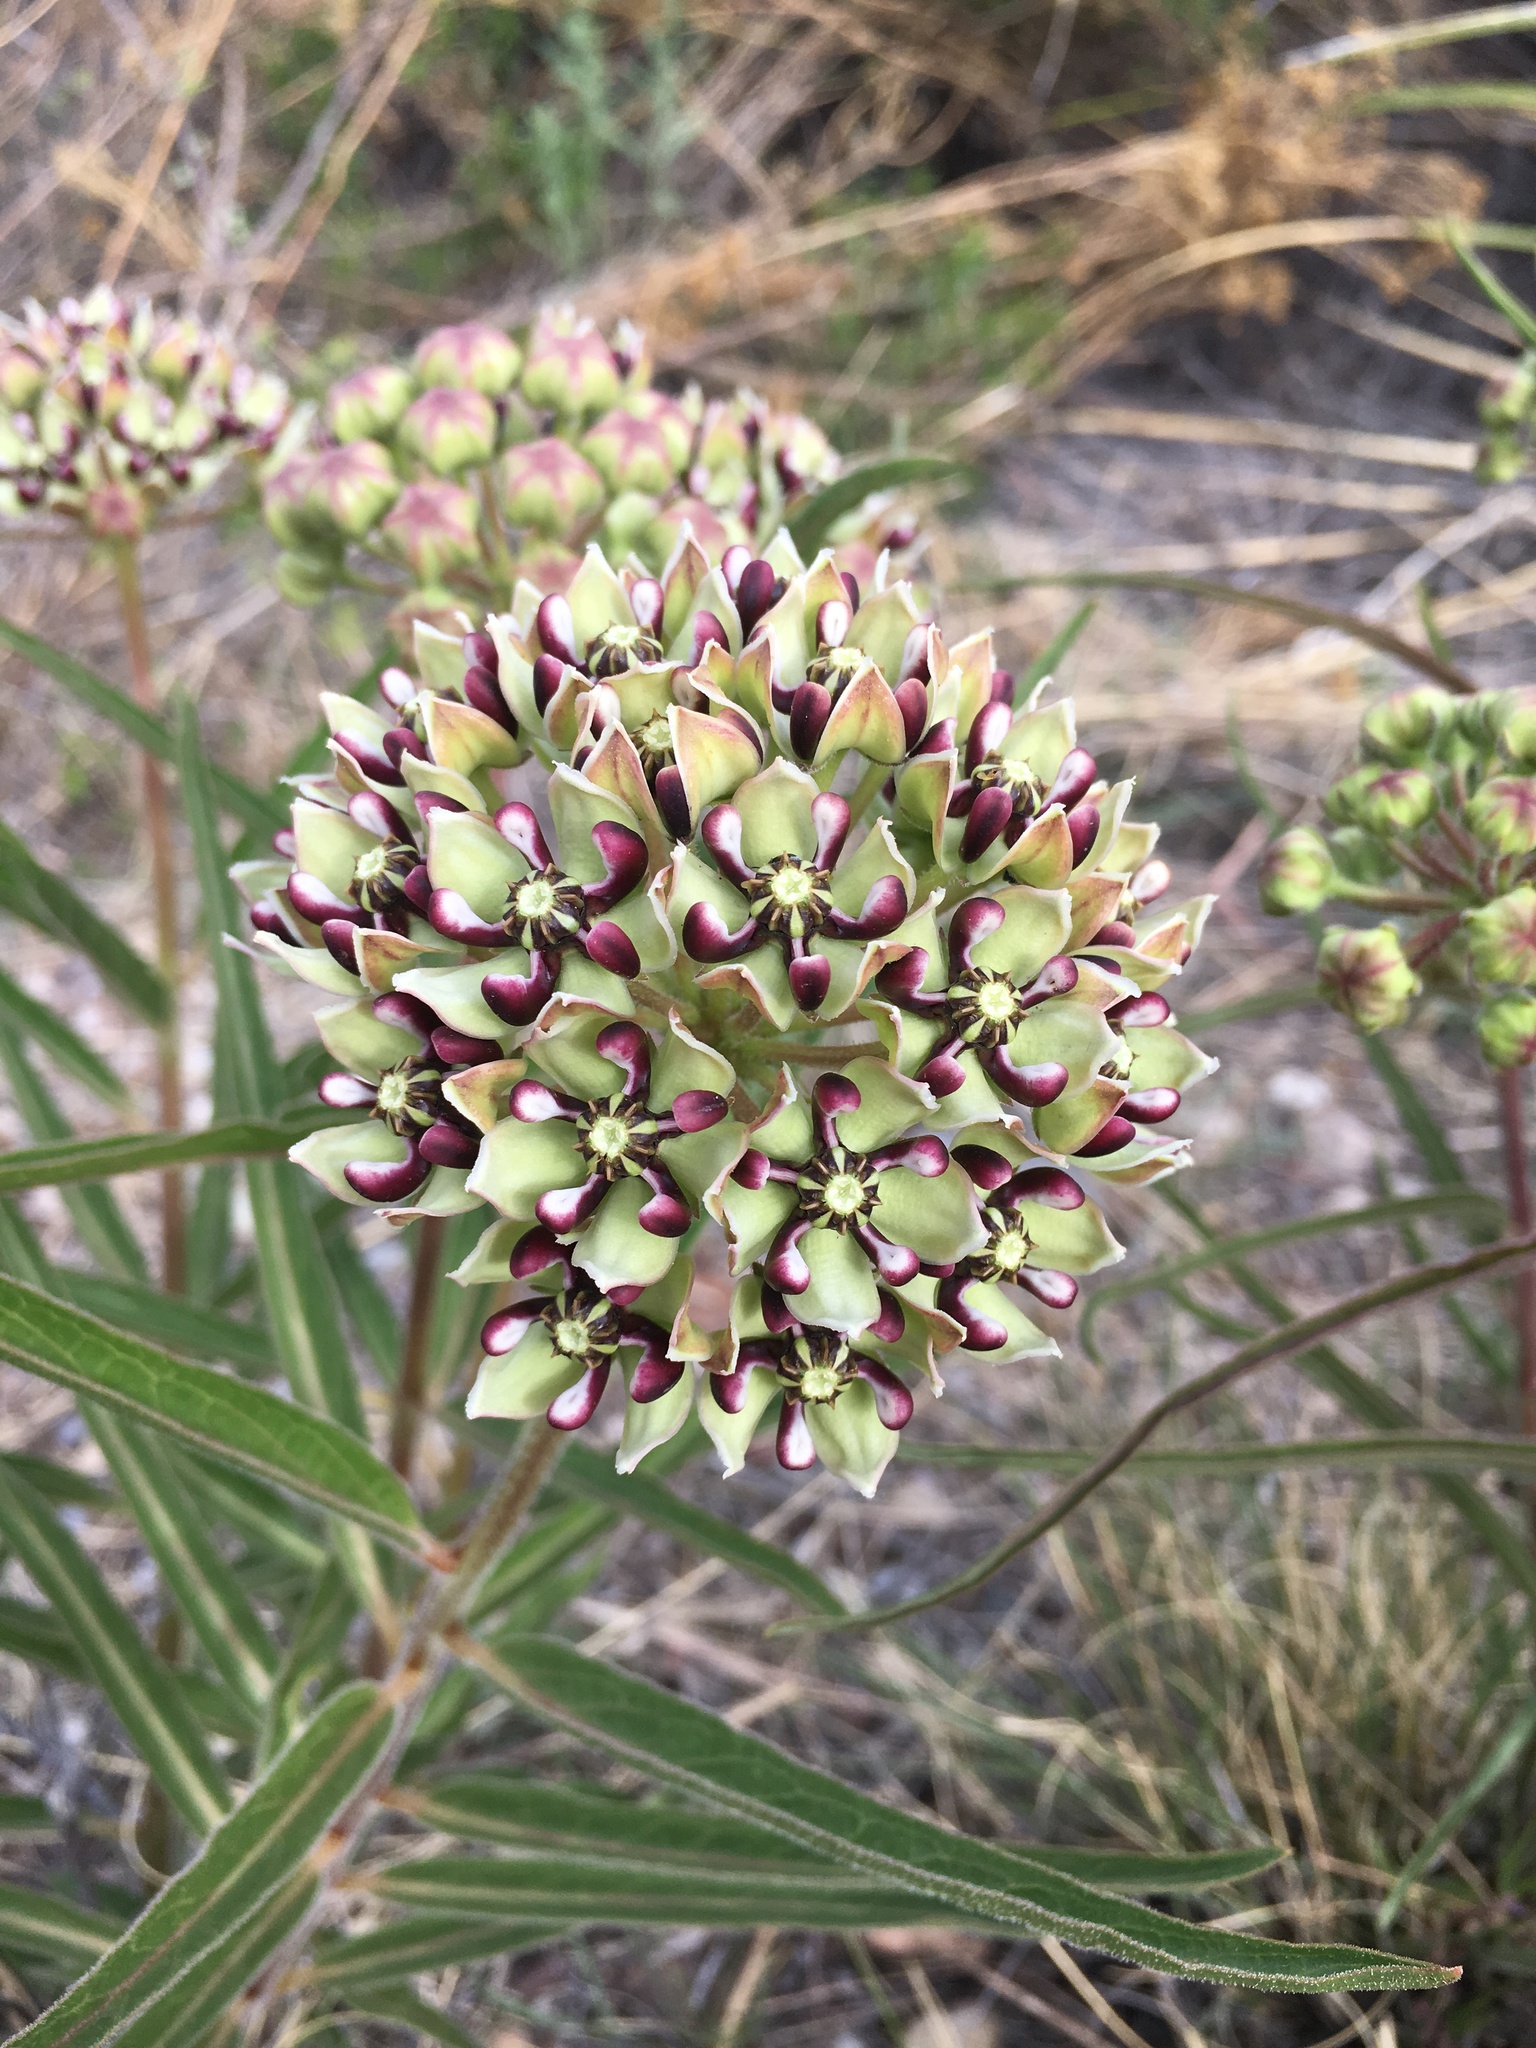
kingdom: Plantae
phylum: Tracheophyta
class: Magnoliopsida
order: Gentianales
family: Apocynaceae
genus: Asclepias
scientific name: Asclepias asperula
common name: Antelope horns
